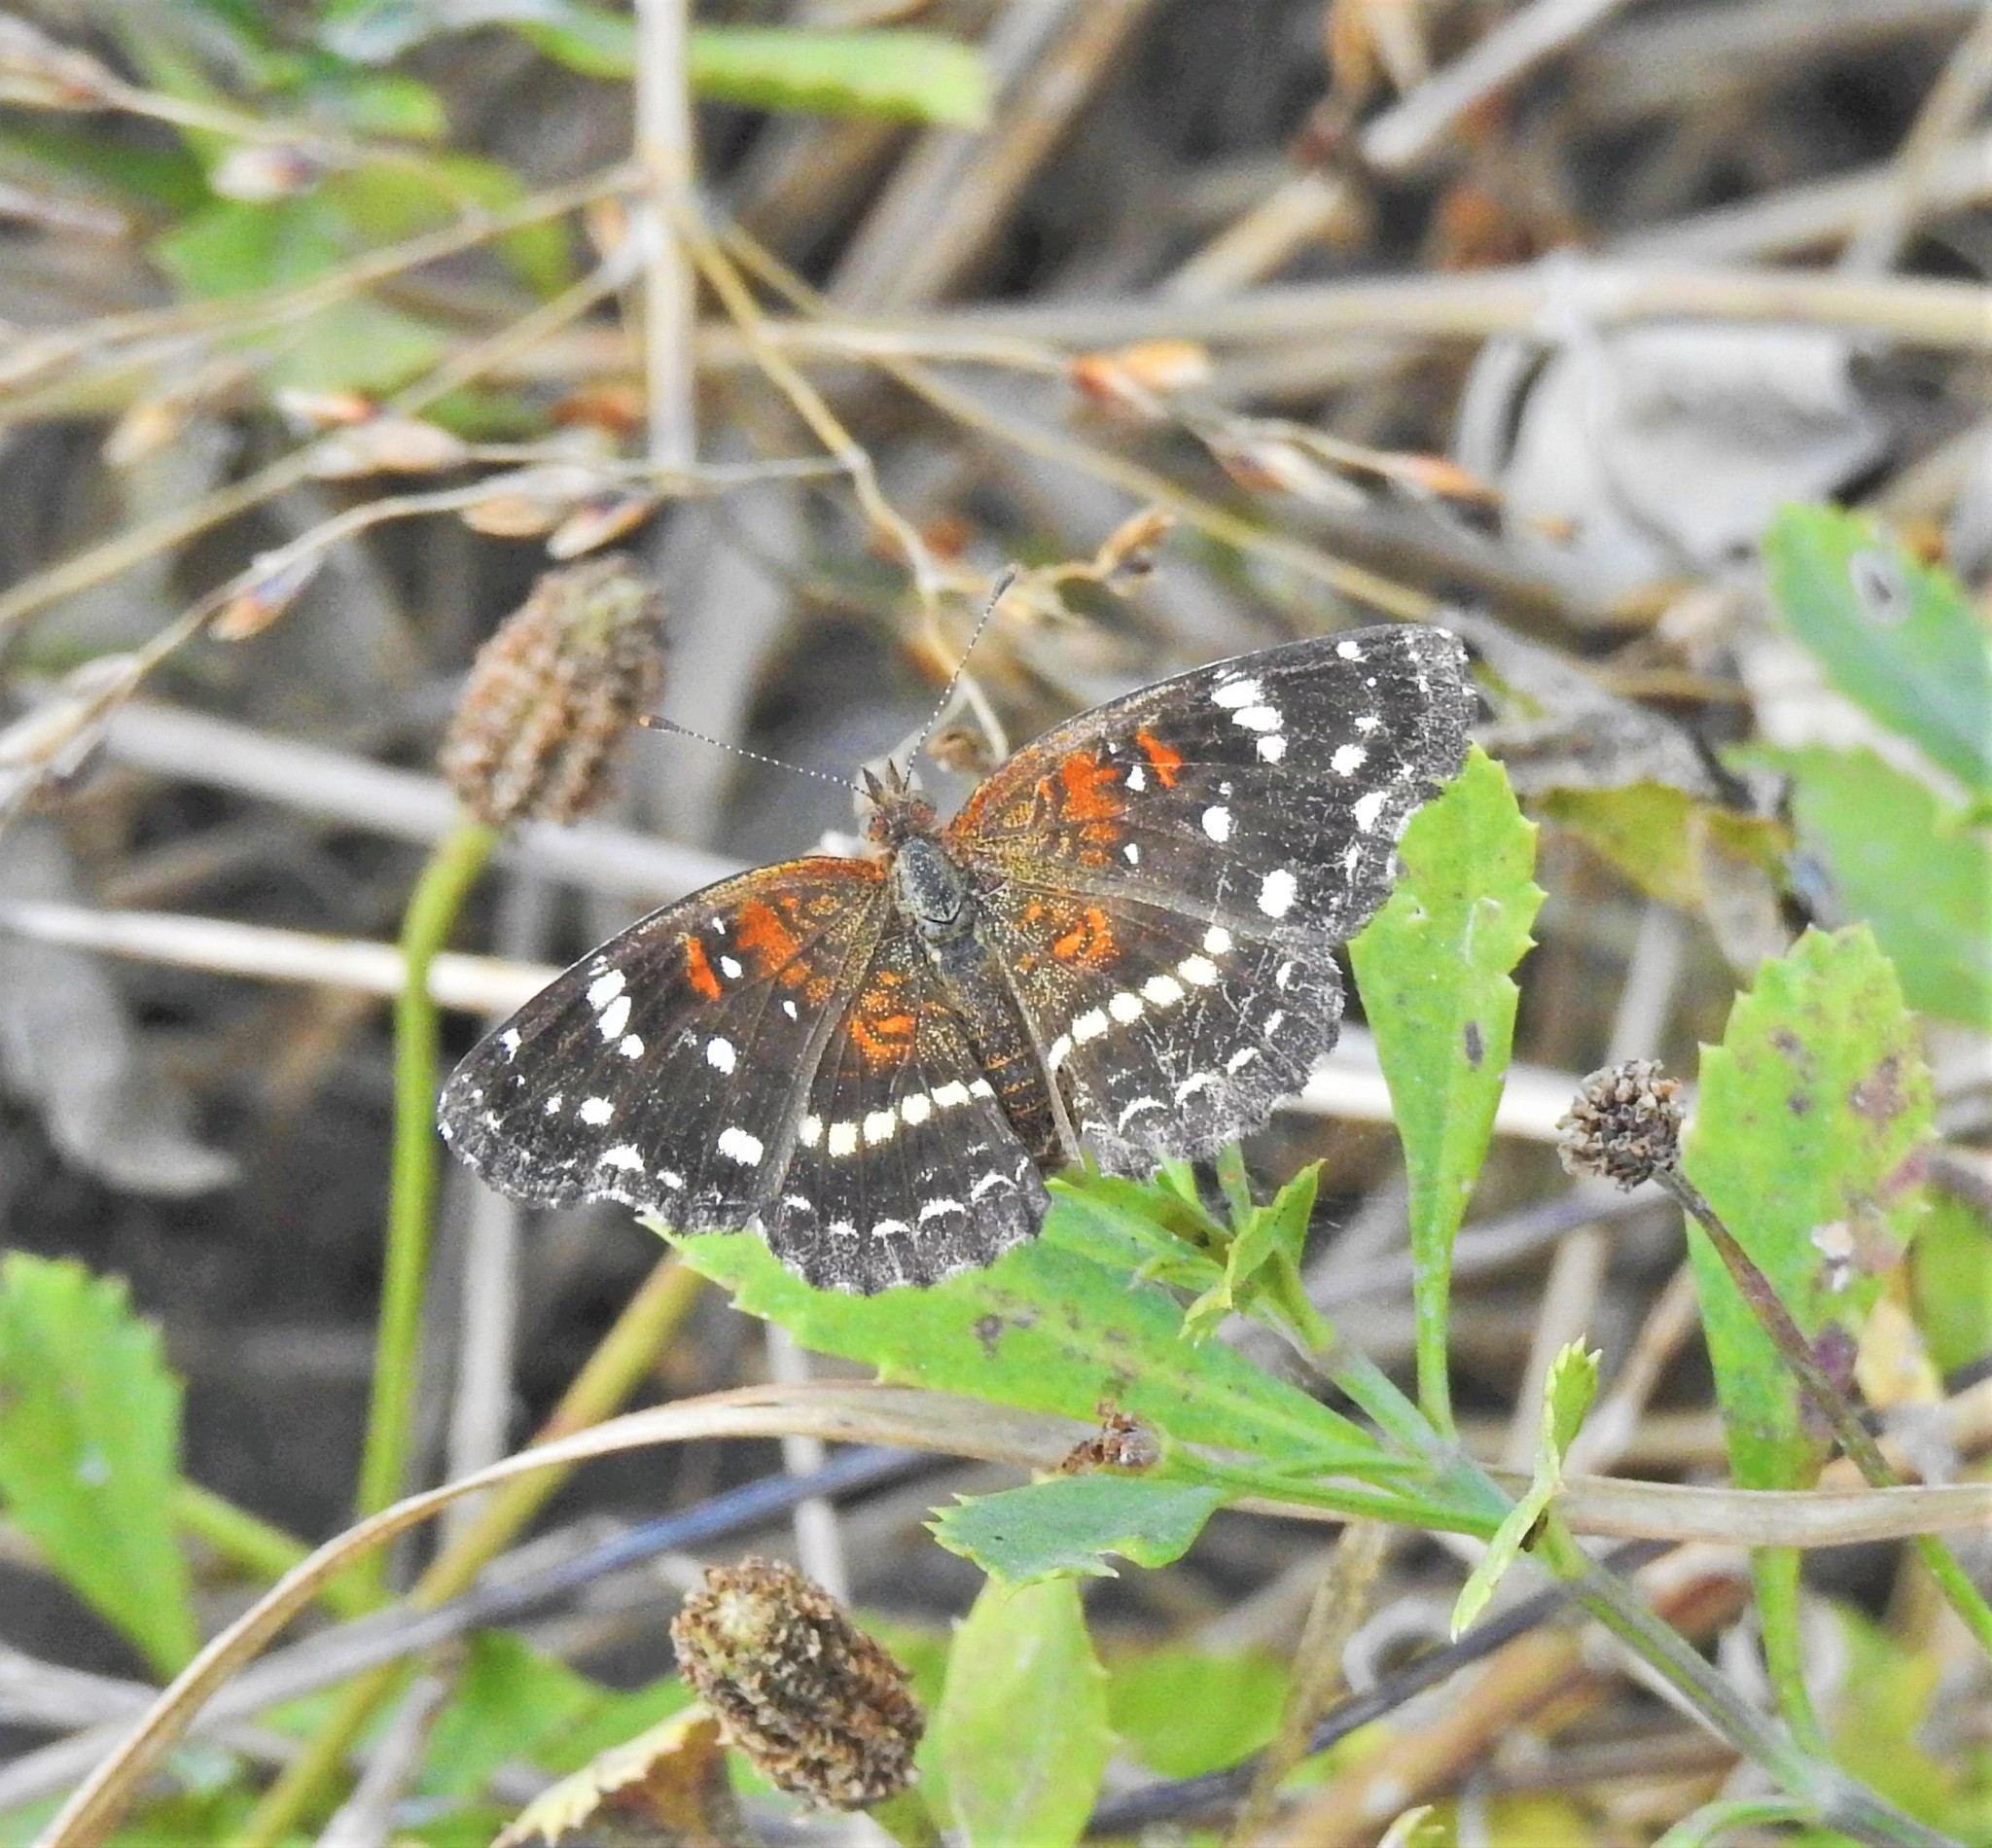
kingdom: Animalia
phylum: Arthropoda
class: Insecta
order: Lepidoptera
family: Nymphalidae
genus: Anthanassa
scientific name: Anthanassa texana
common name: Texan crescent
